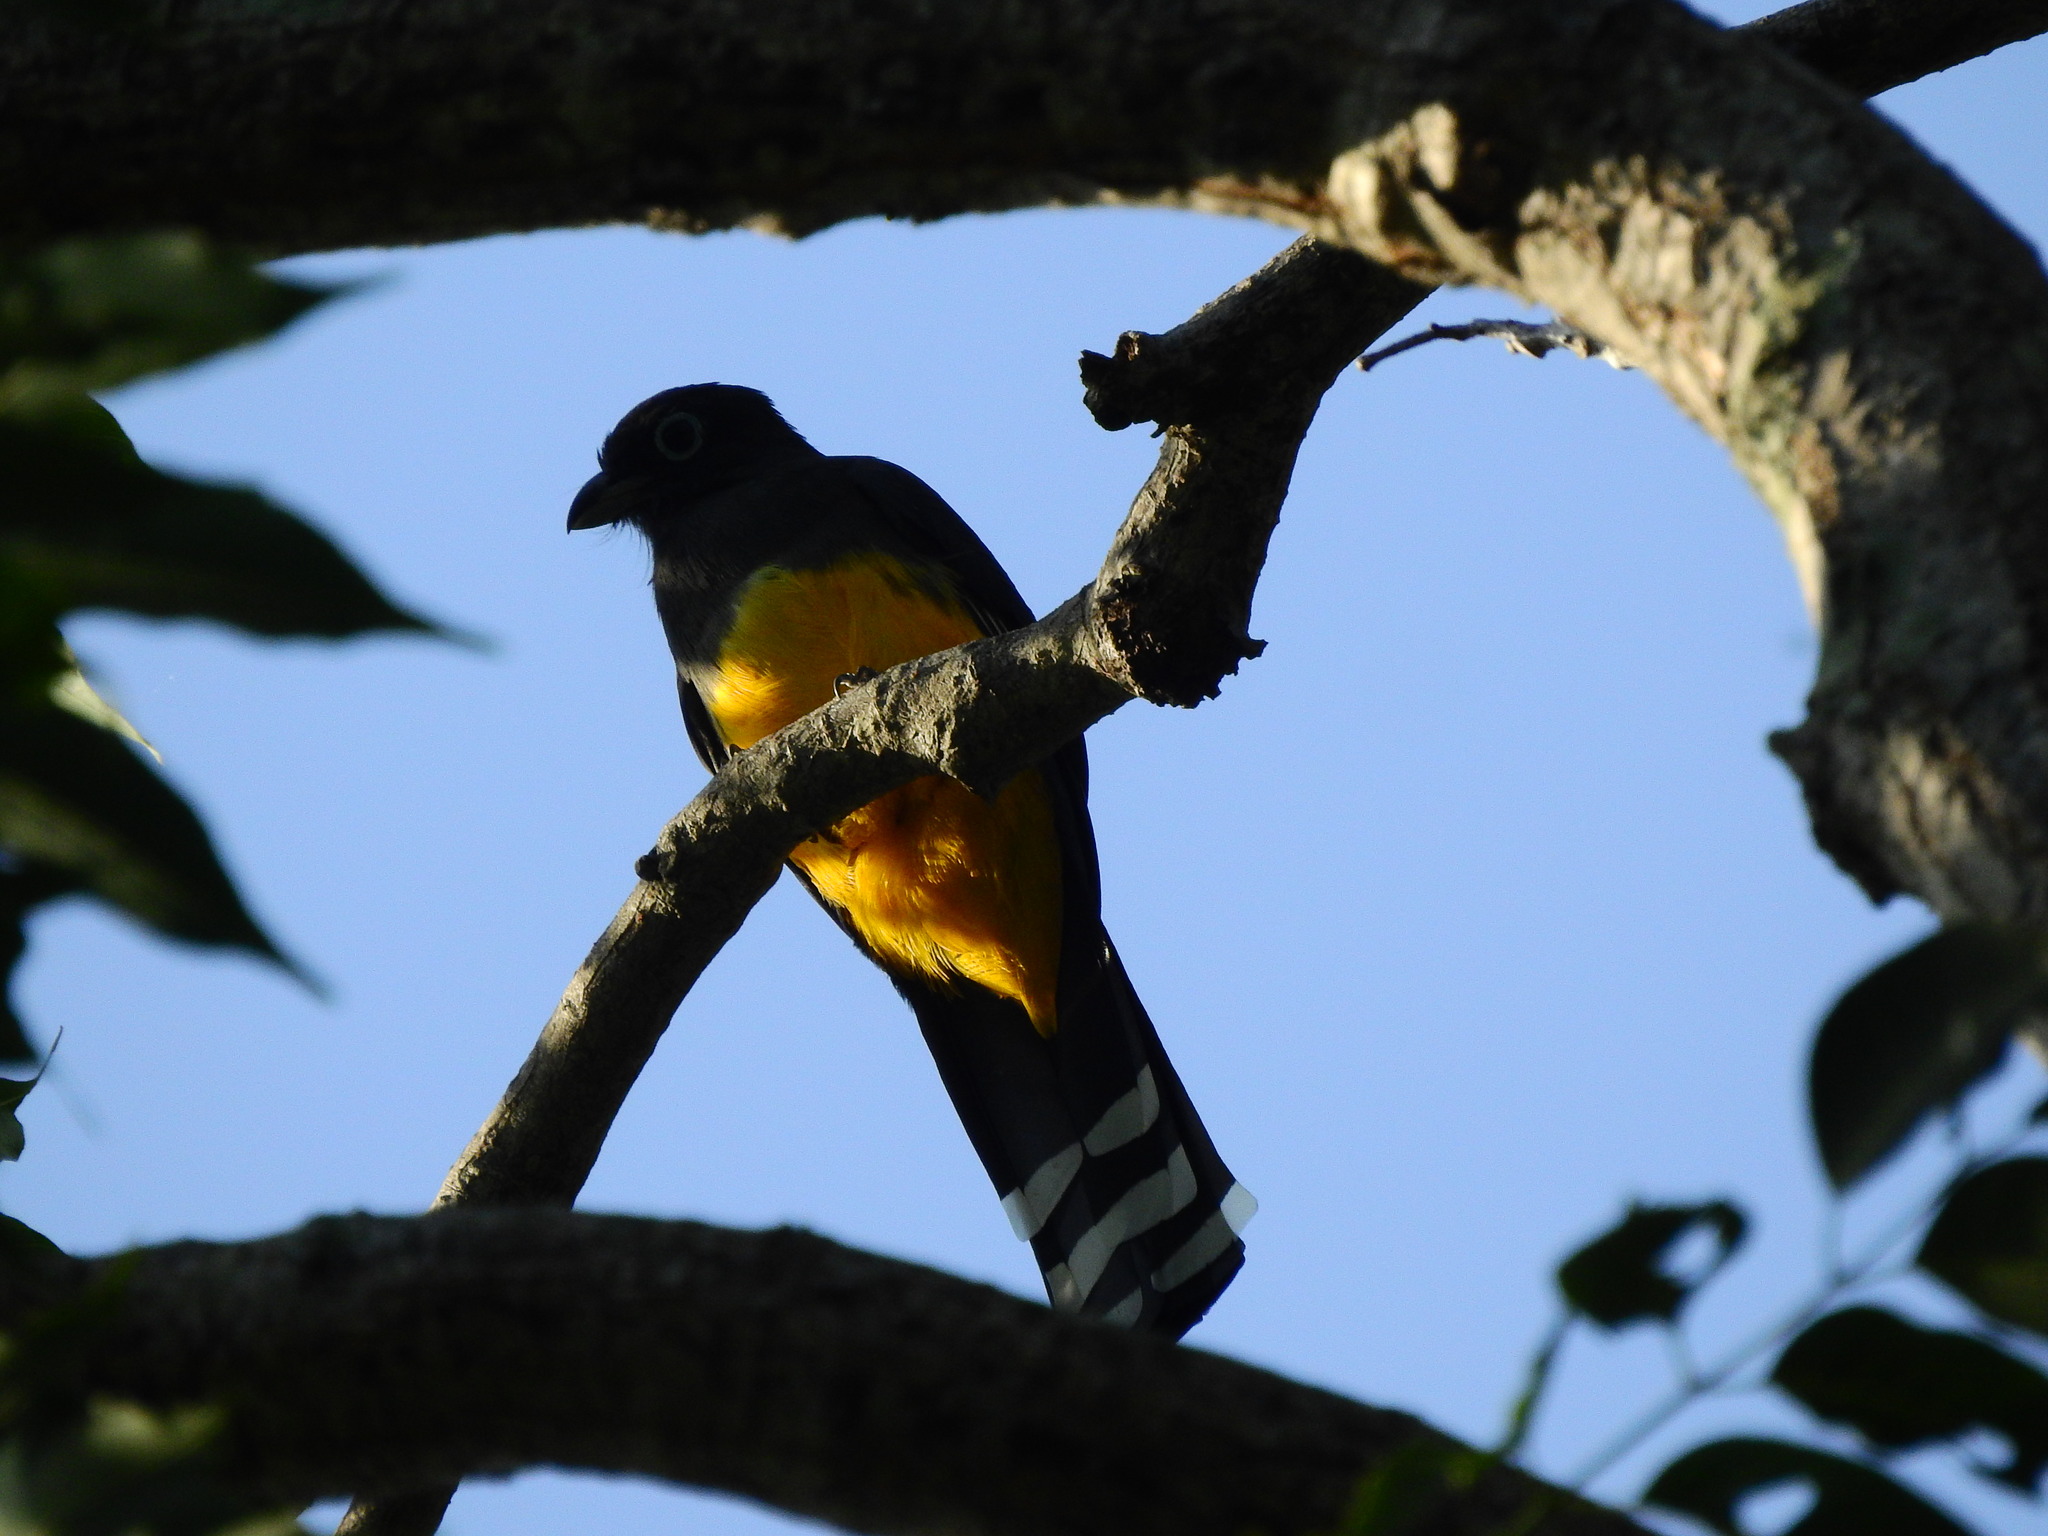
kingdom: Animalia
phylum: Chordata
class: Aves
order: Trogoniformes
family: Trogonidae
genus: Trogon
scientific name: Trogon melanocephalus
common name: Black-headed trogon
